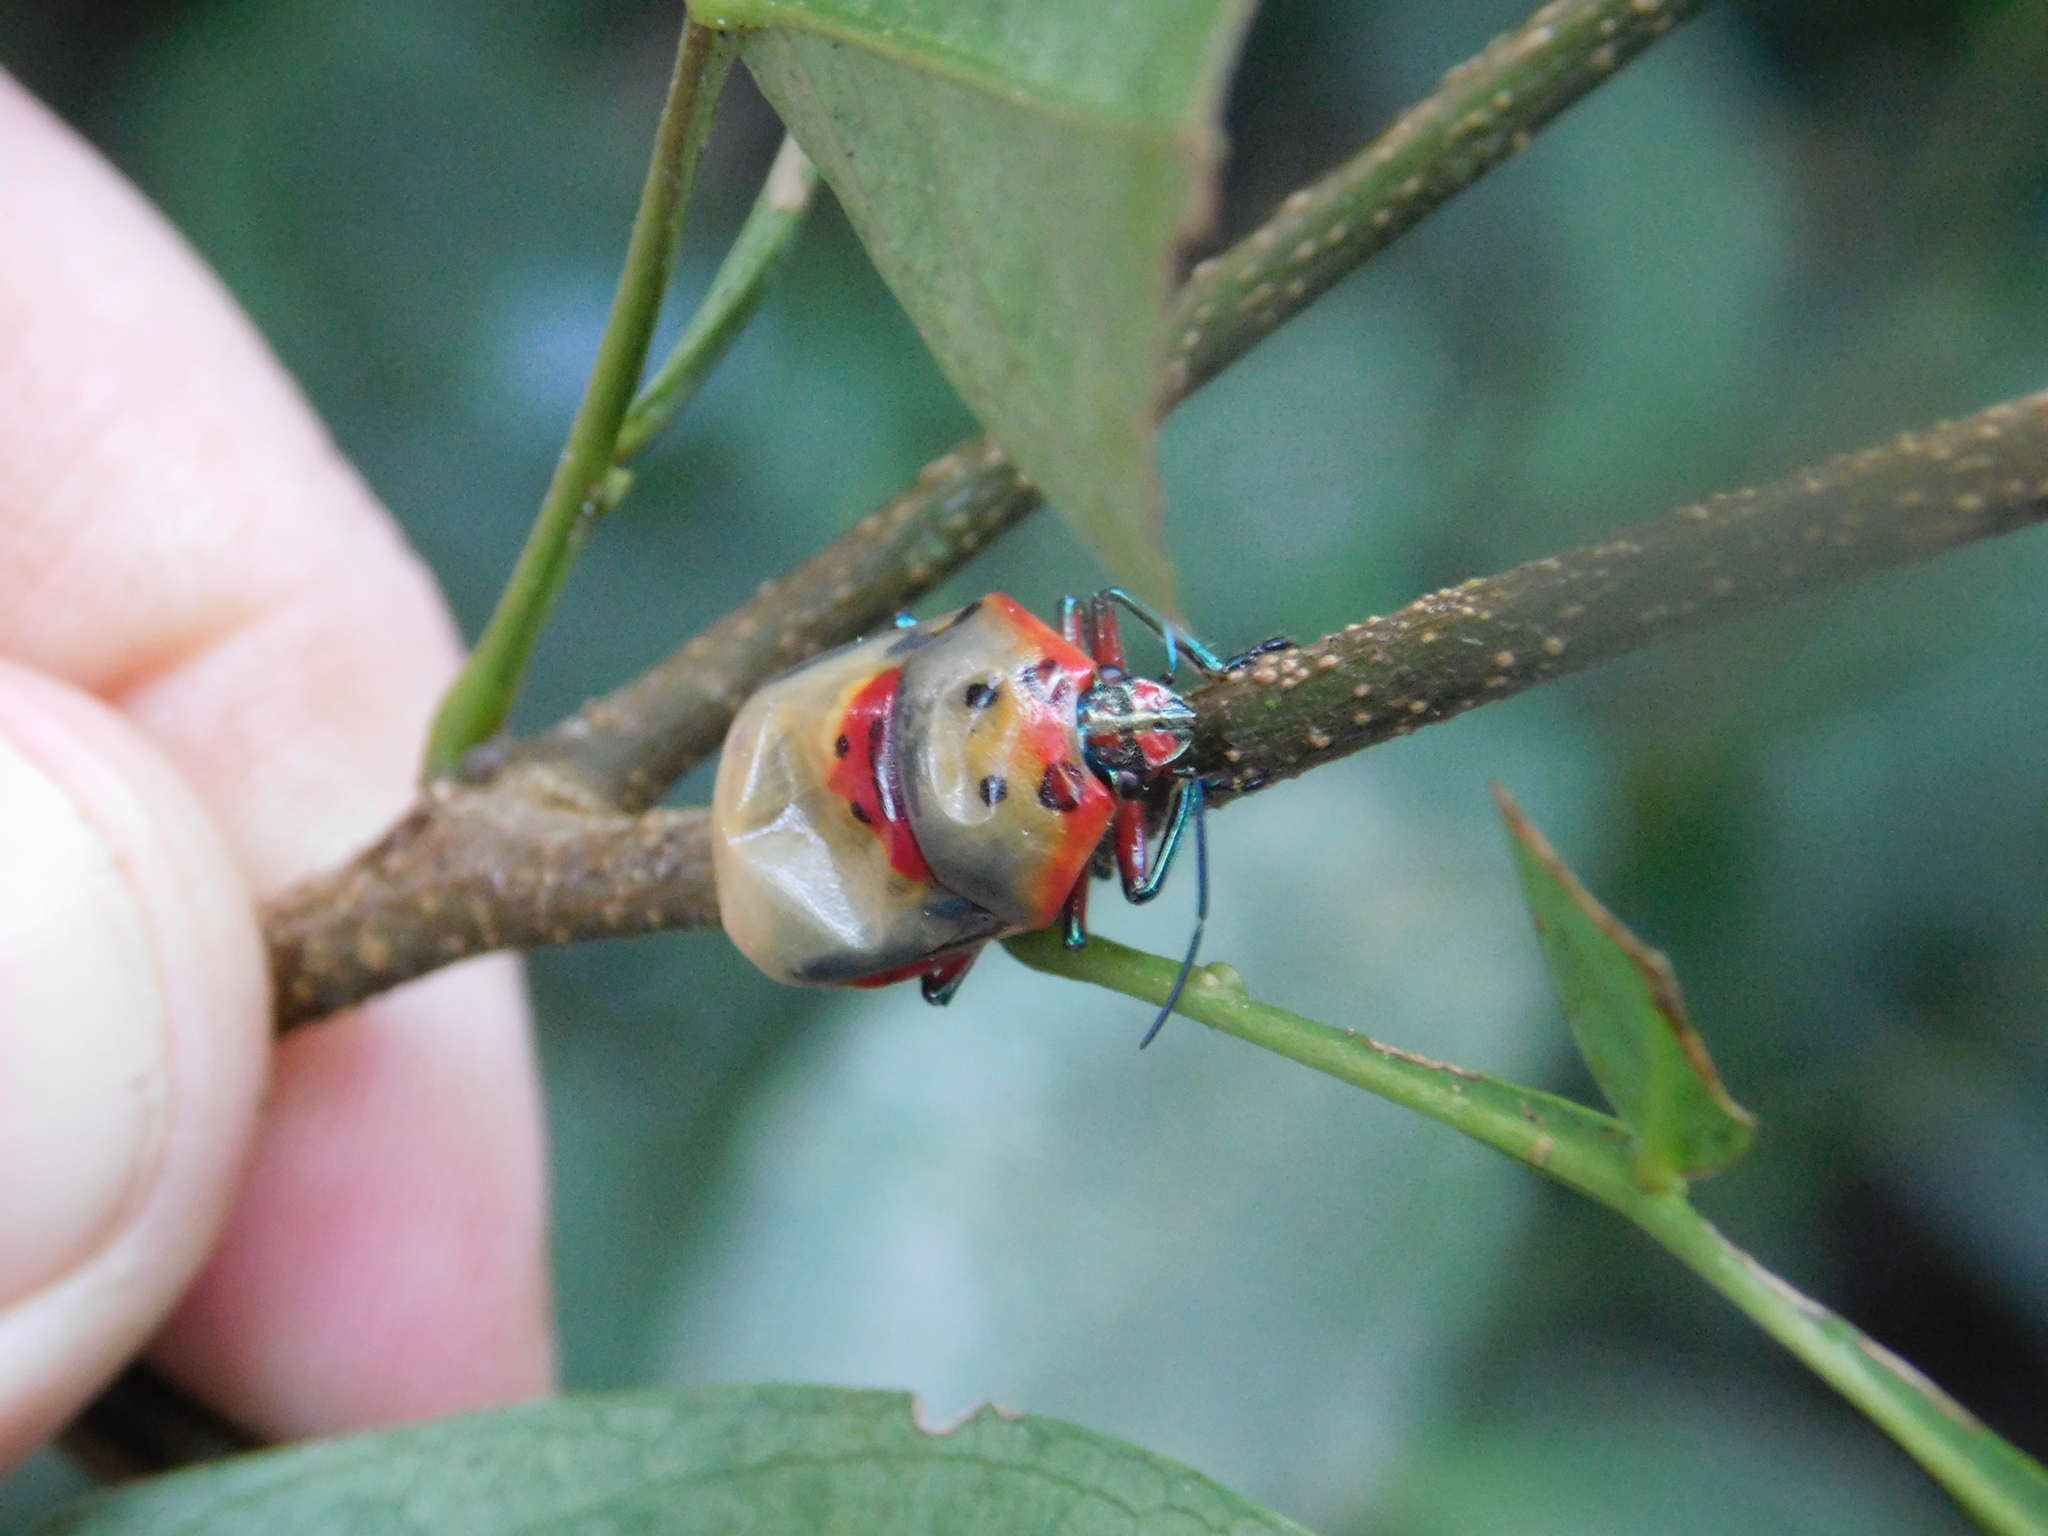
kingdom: Animalia
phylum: Arthropoda
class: Insecta
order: Hemiptera
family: Scutelleridae
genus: Augocoris
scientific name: Augocoris illustris
